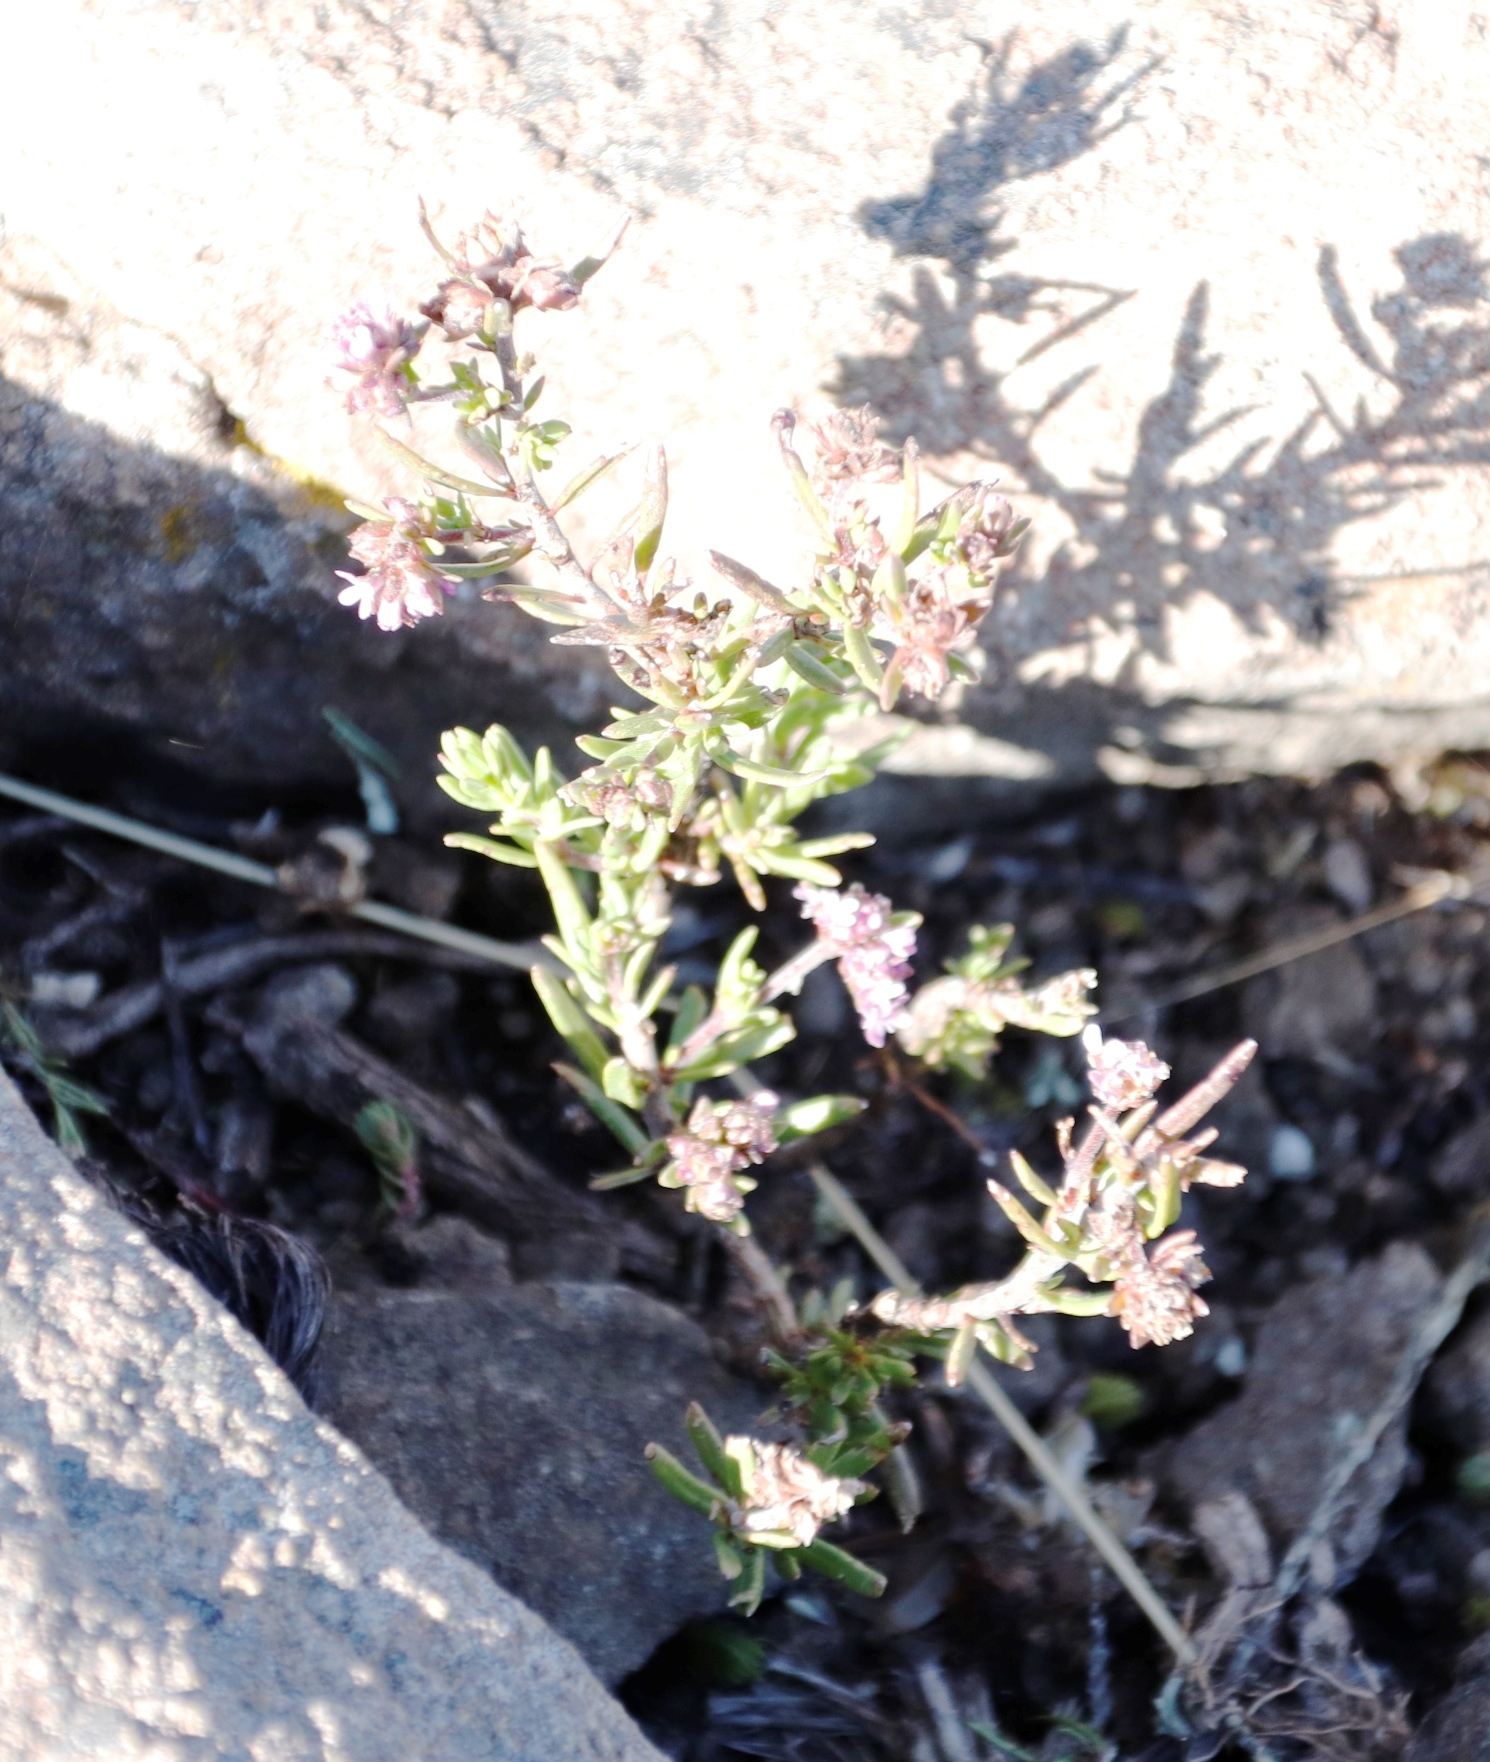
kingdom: Plantae
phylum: Tracheophyta
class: Magnoliopsida
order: Saxifragales
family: Crassulaceae
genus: Crassula
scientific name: Crassula dependens
